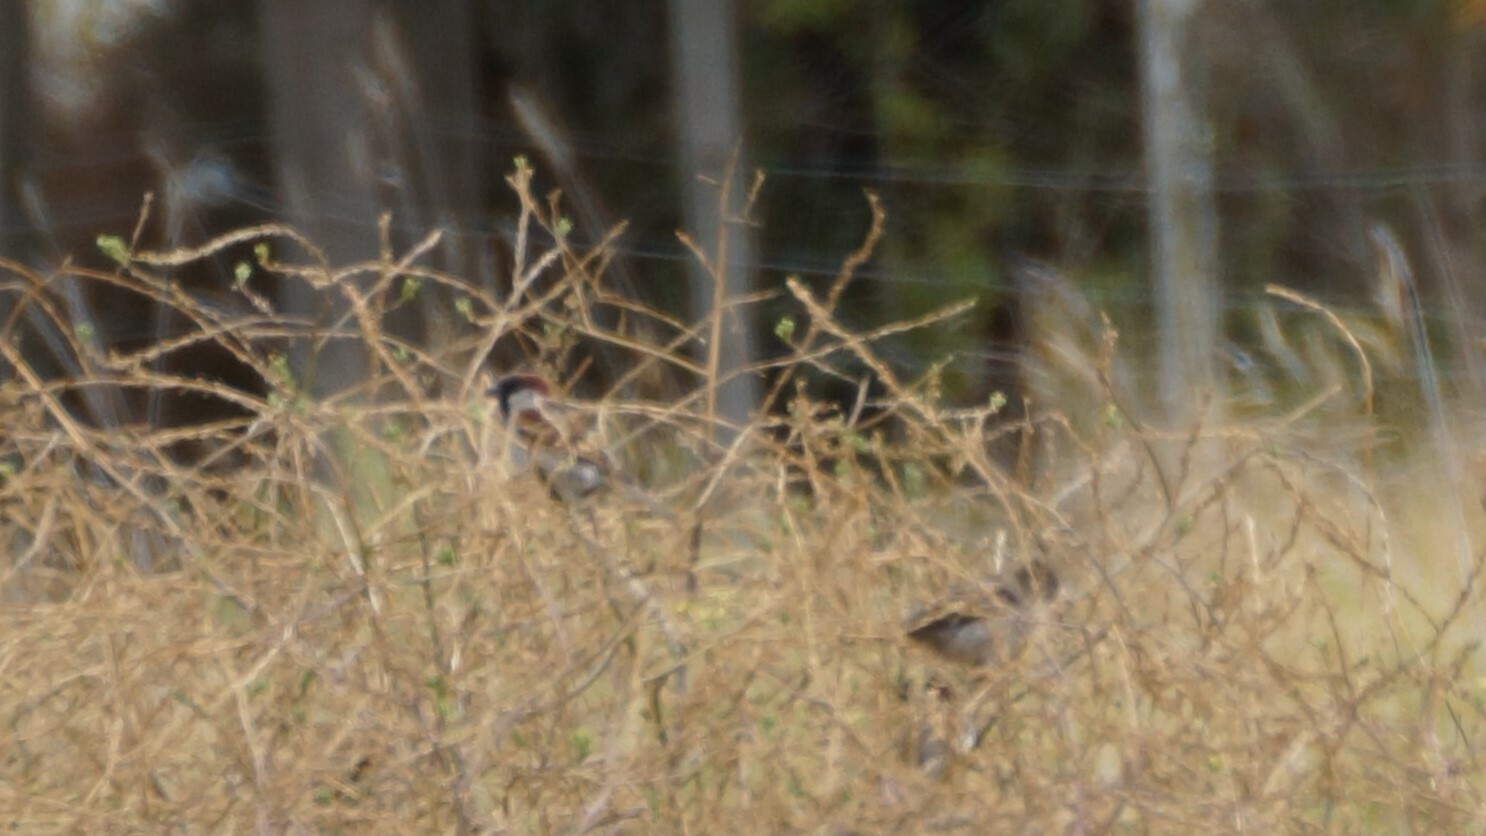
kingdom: Animalia
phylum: Chordata
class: Aves
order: Passeriformes
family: Passeridae
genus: Passer
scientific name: Passer domesticus
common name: House sparrow
